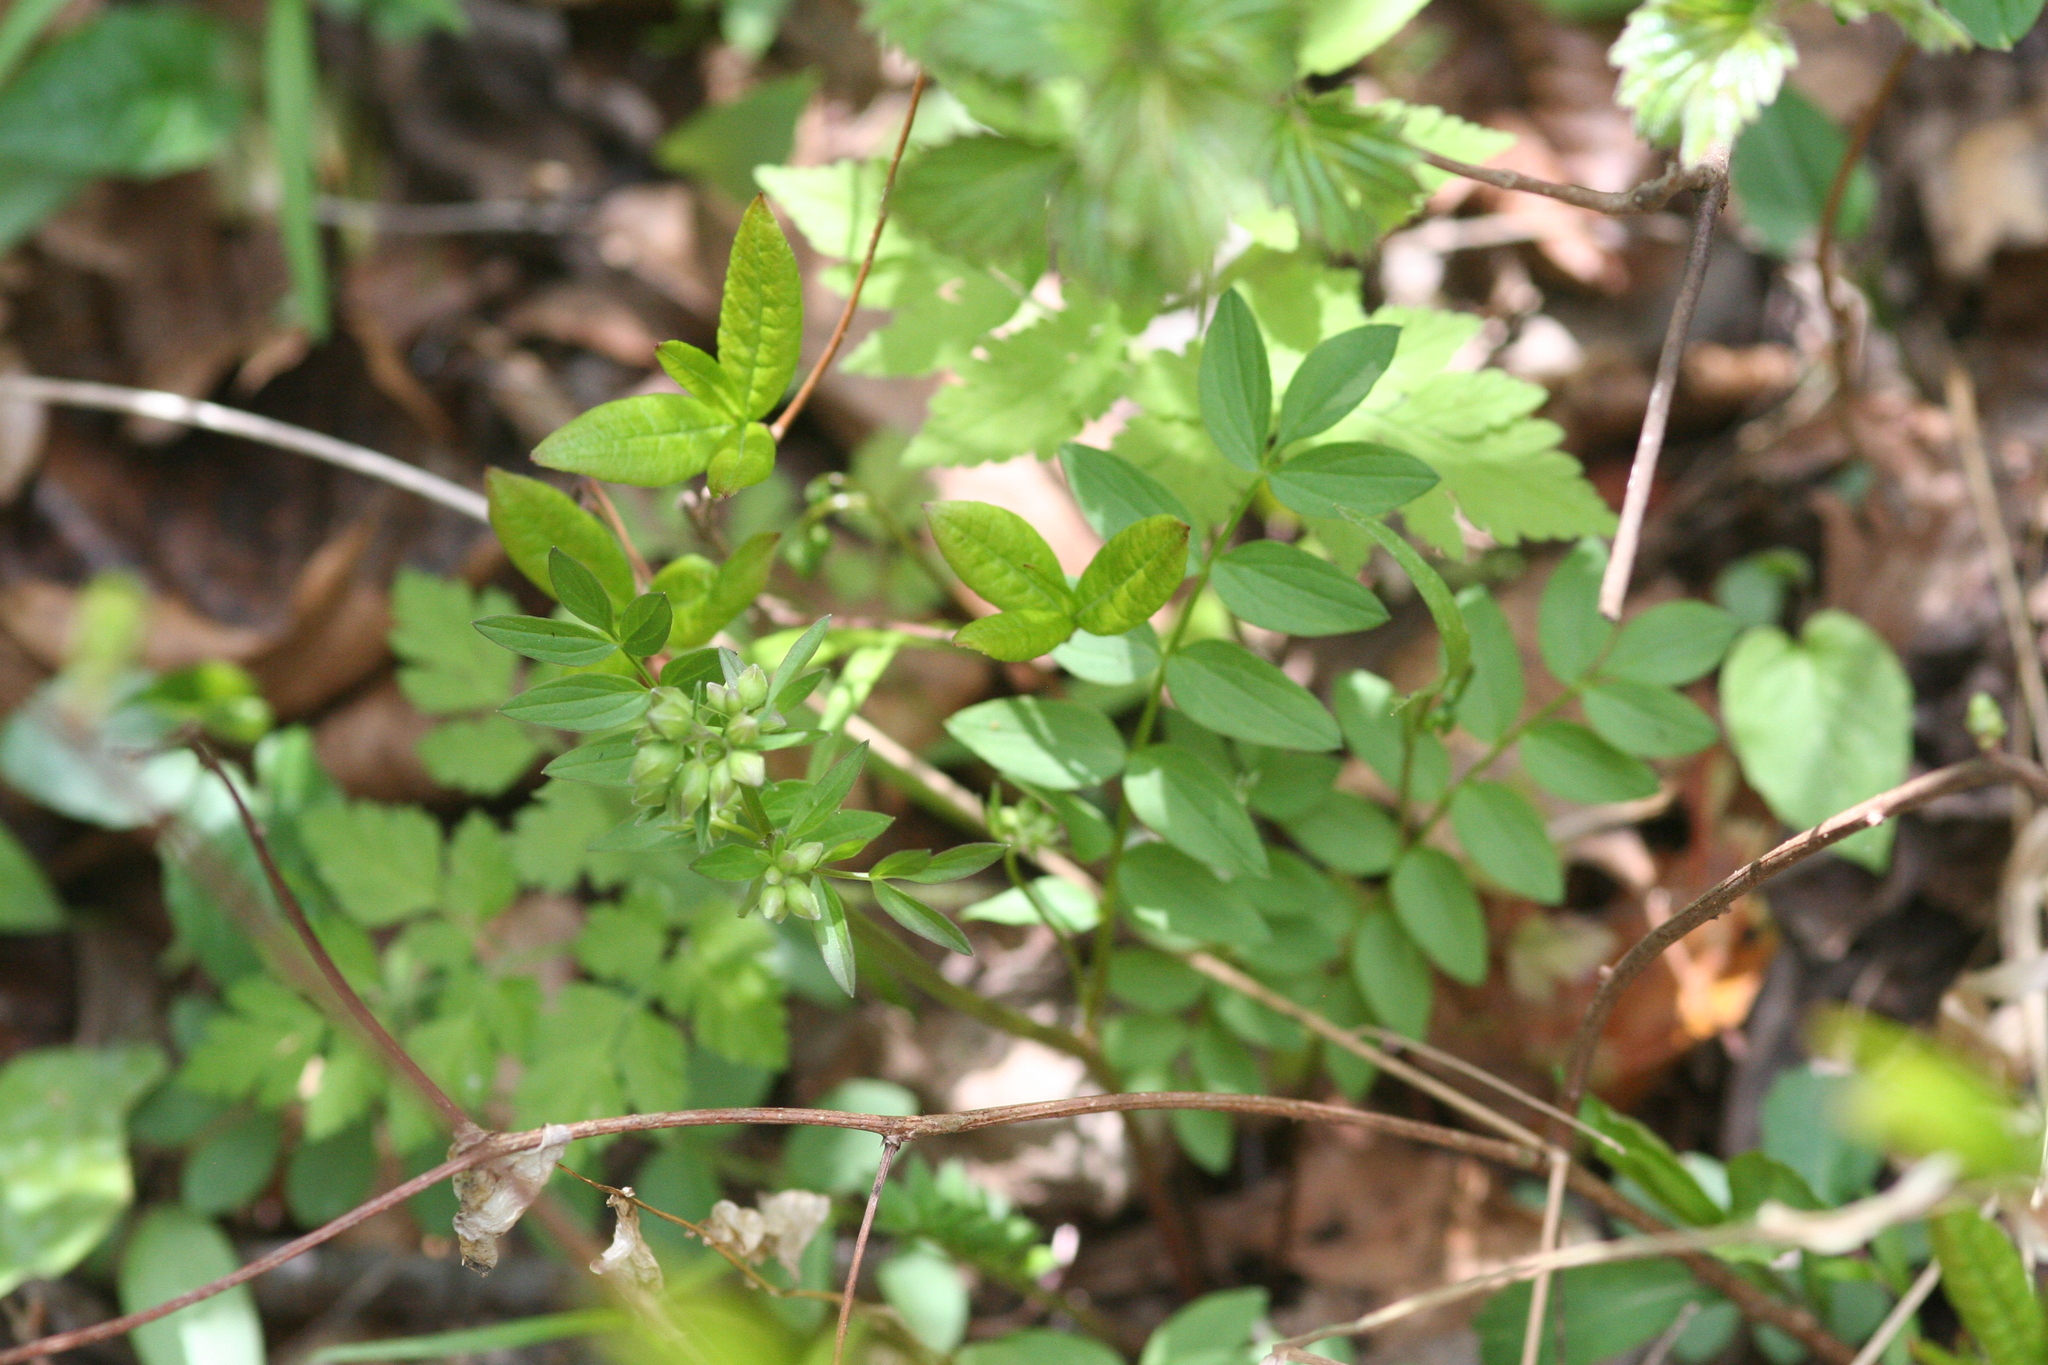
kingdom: Plantae
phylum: Tracheophyta
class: Magnoliopsida
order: Ericales
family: Polemoniaceae
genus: Polemonium
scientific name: Polemonium reptans
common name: Creeping jacob's-ladder
